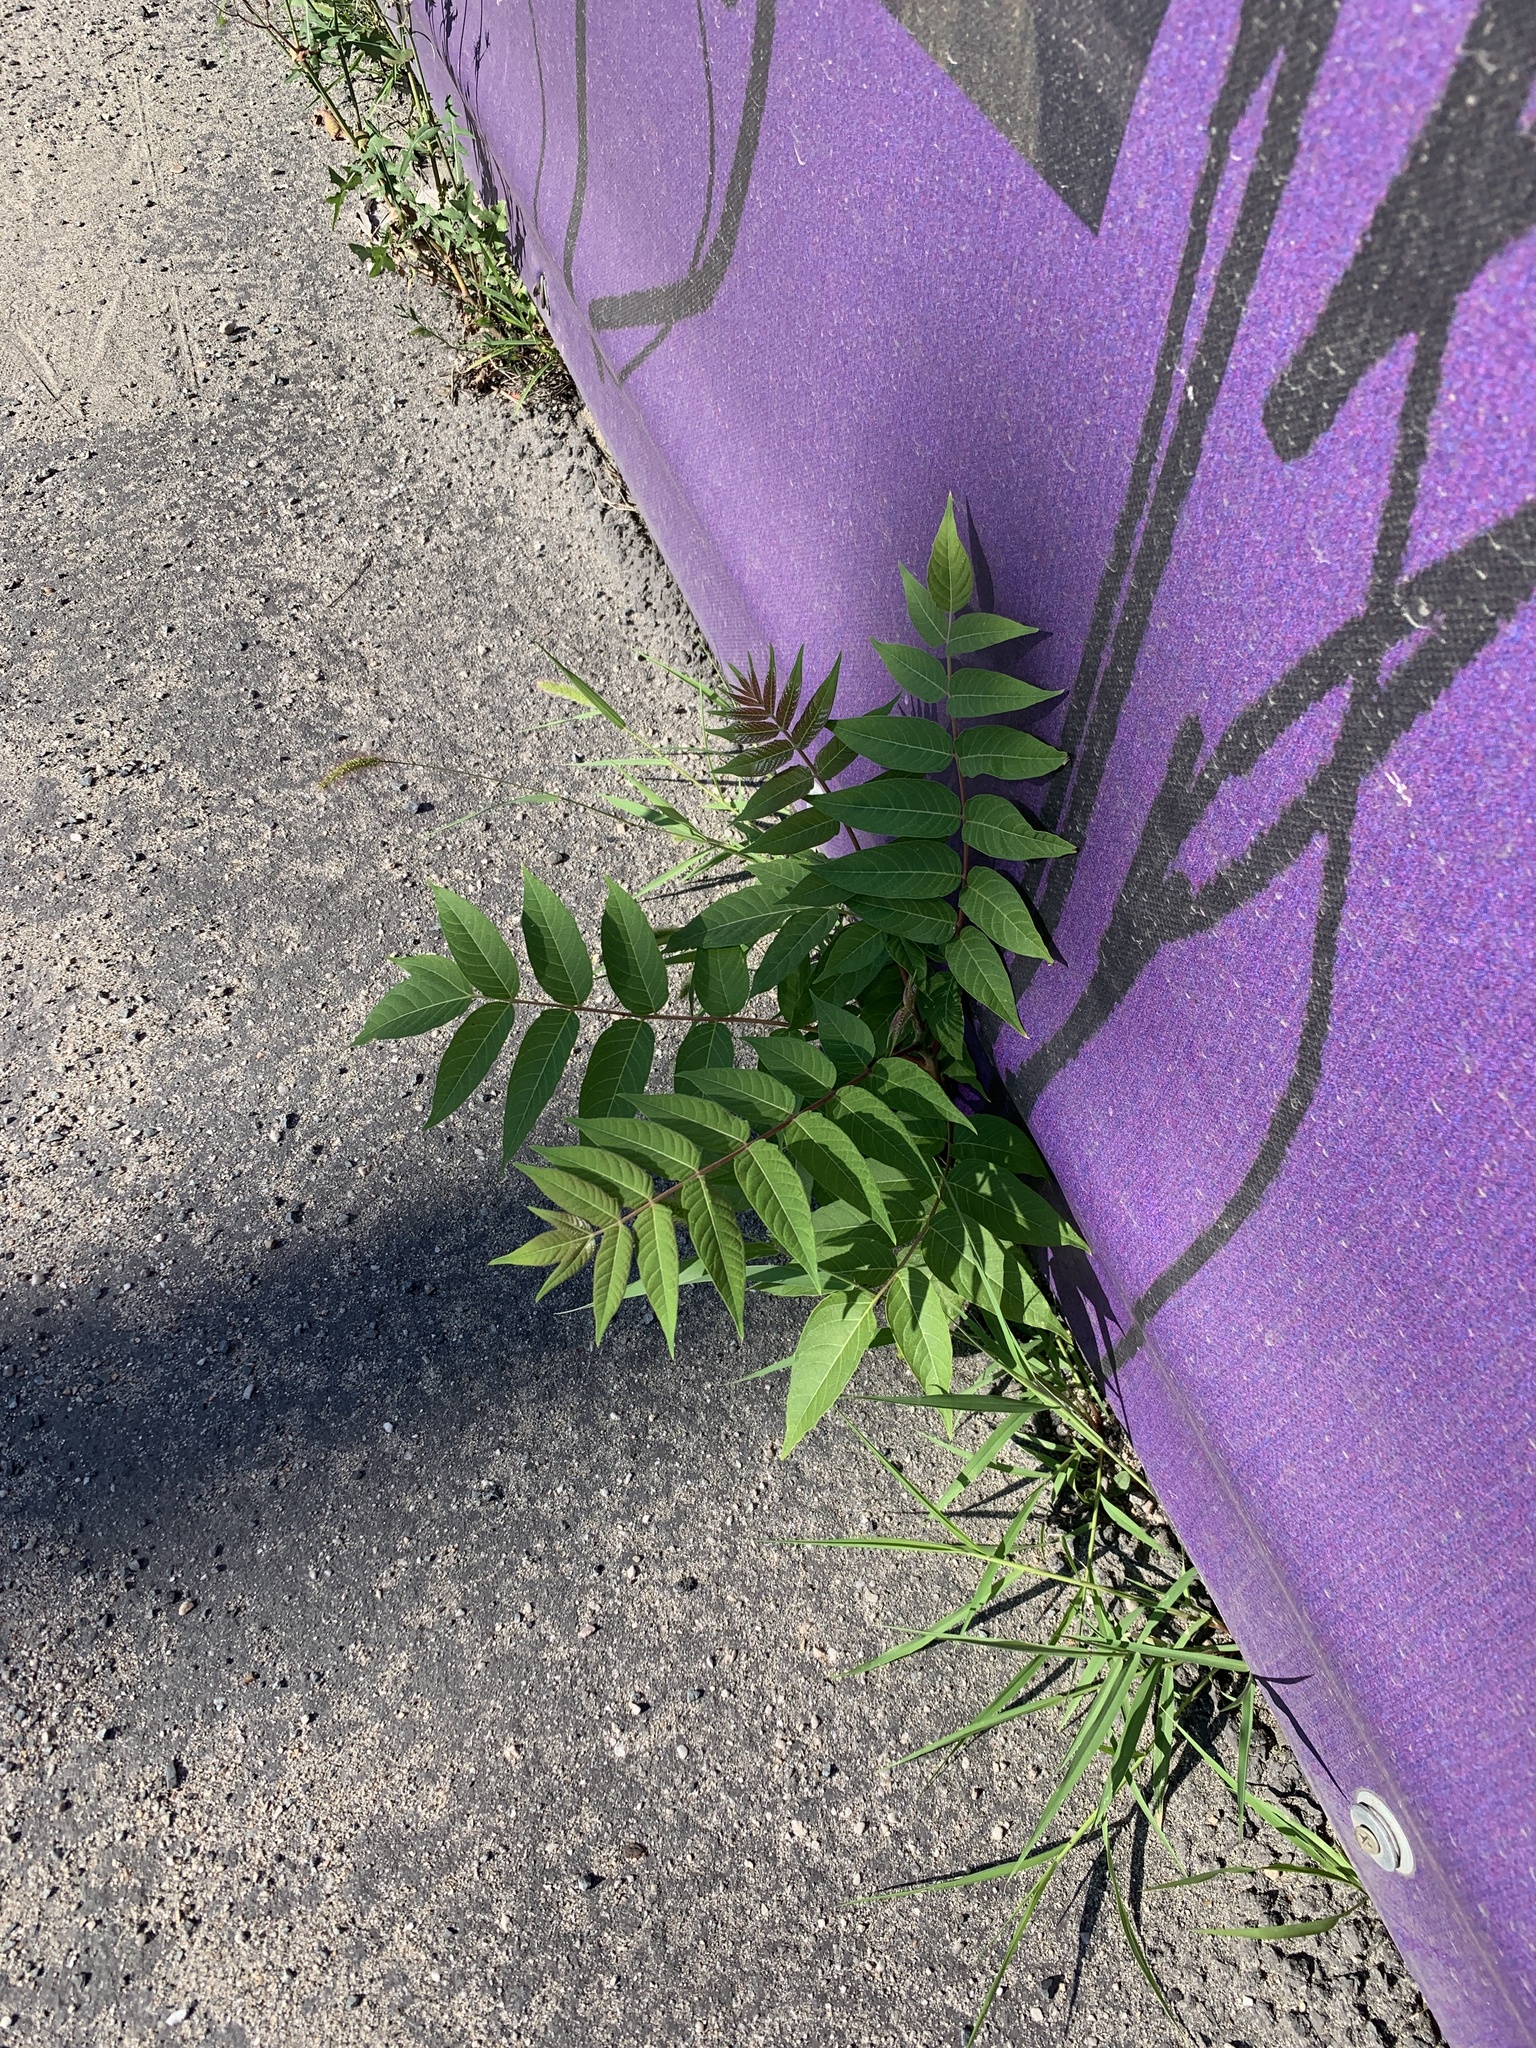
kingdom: Plantae
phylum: Tracheophyta
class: Magnoliopsida
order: Sapindales
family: Simaroubaceae
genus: Ailanthus
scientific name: Ailanthus altissima
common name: Tree-of-heaven
